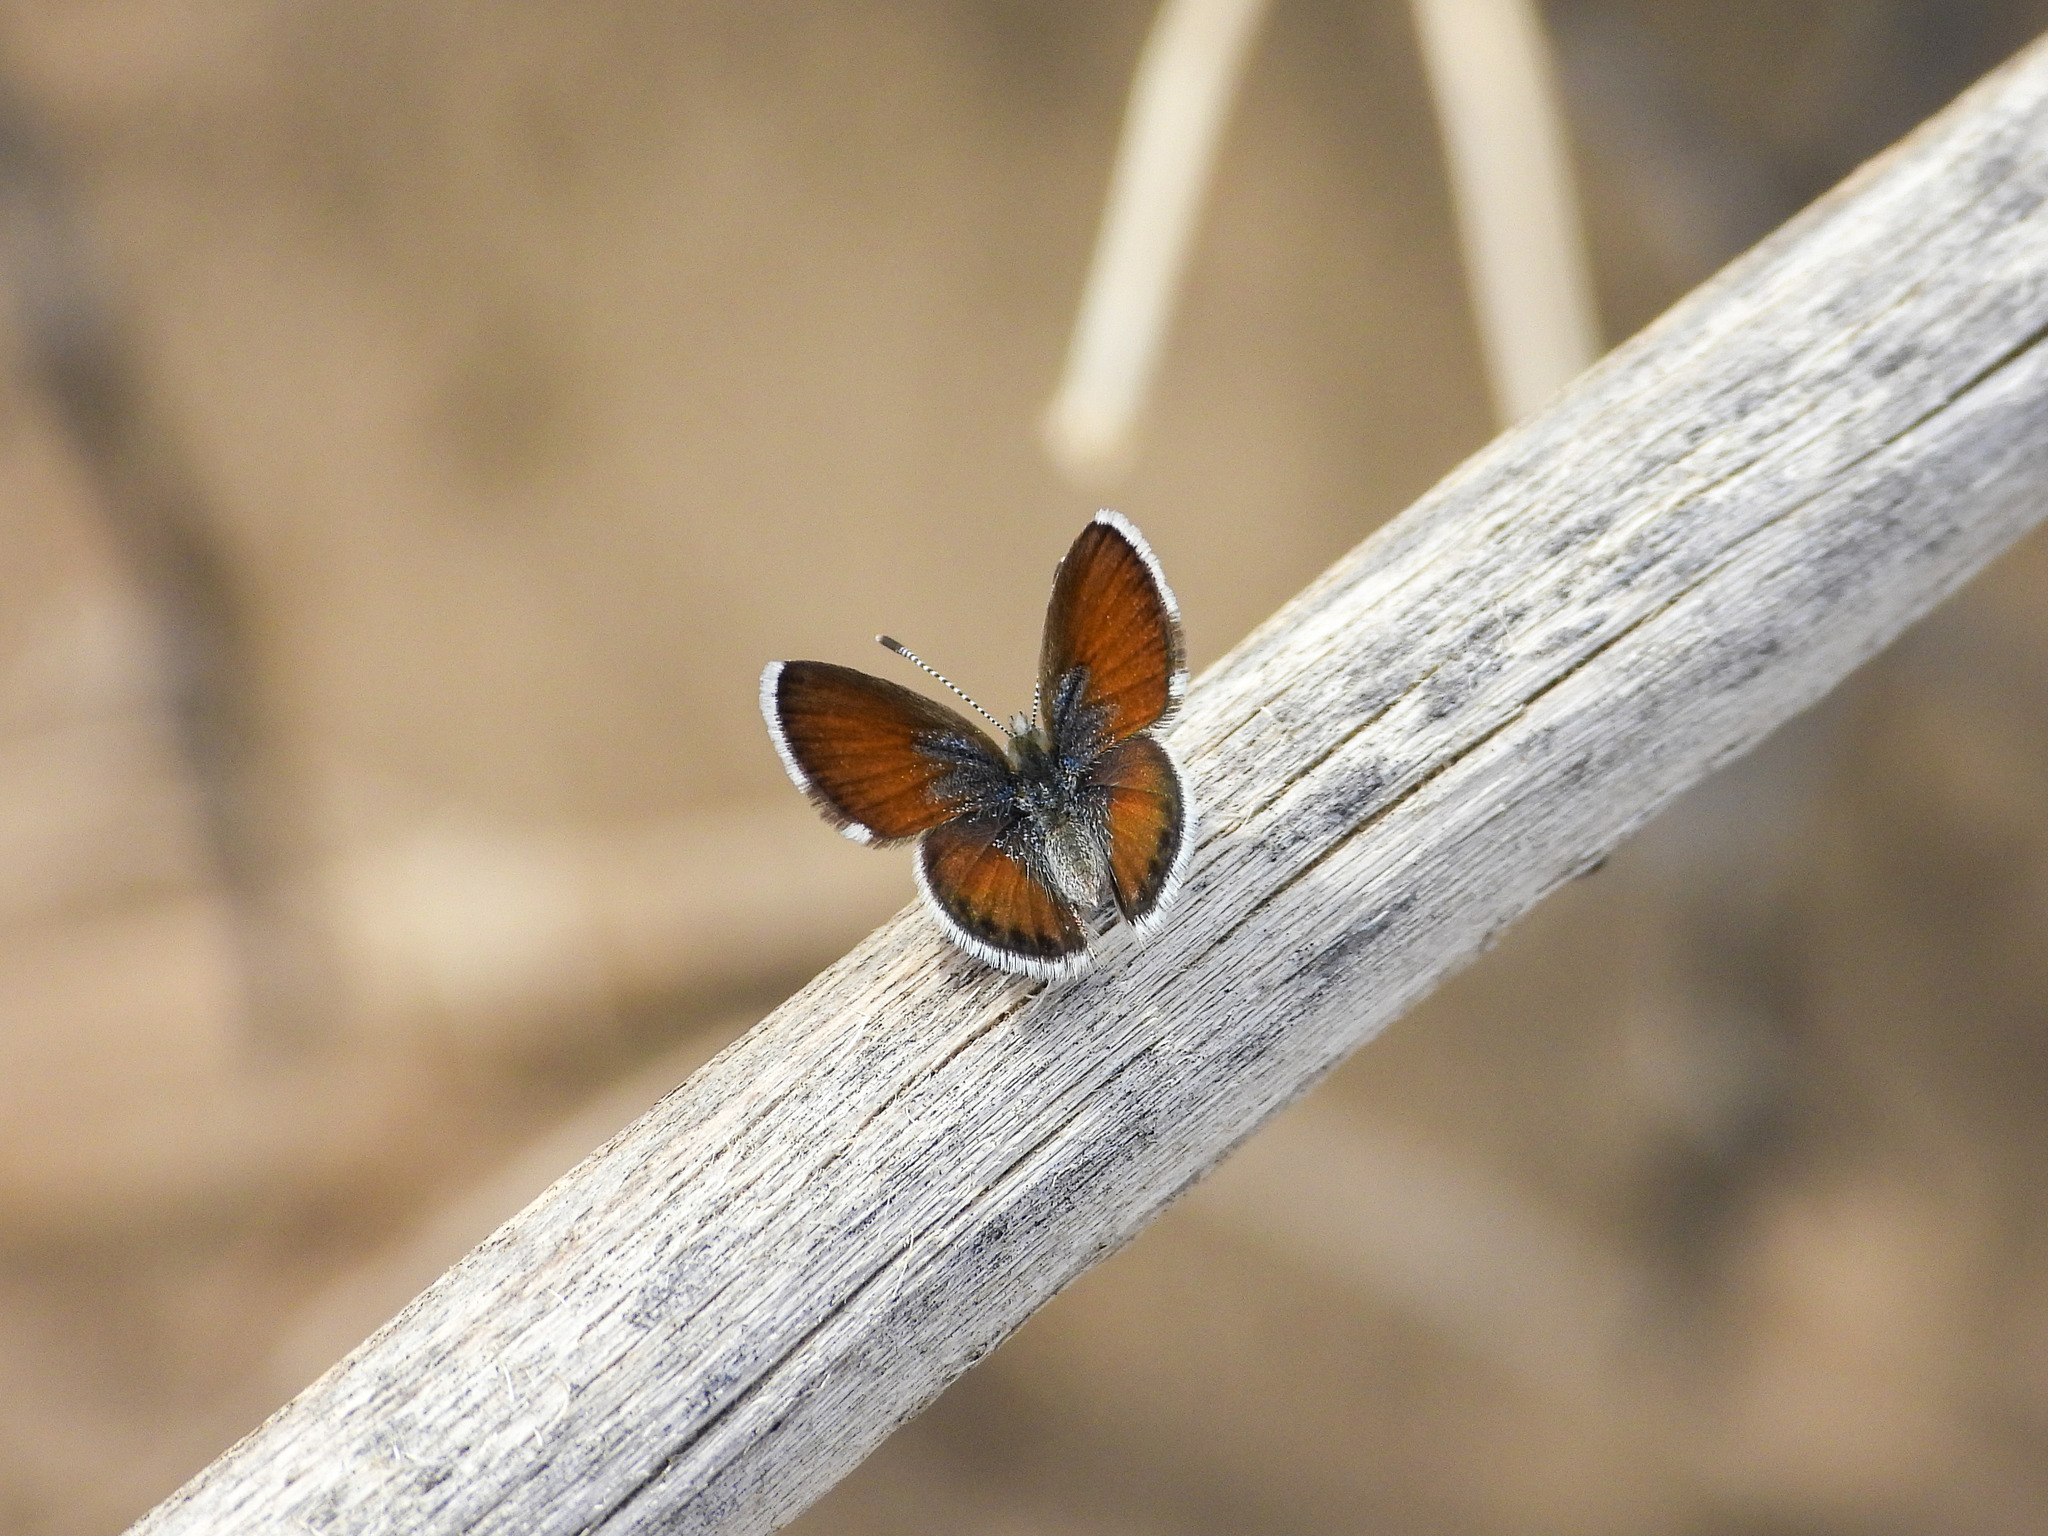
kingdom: Animalia
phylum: Arthropoda
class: Insecta
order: Lepidoptera
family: Lycaenidae
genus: Brephidium
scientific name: Brephidium exilis
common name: Pygmy blue
